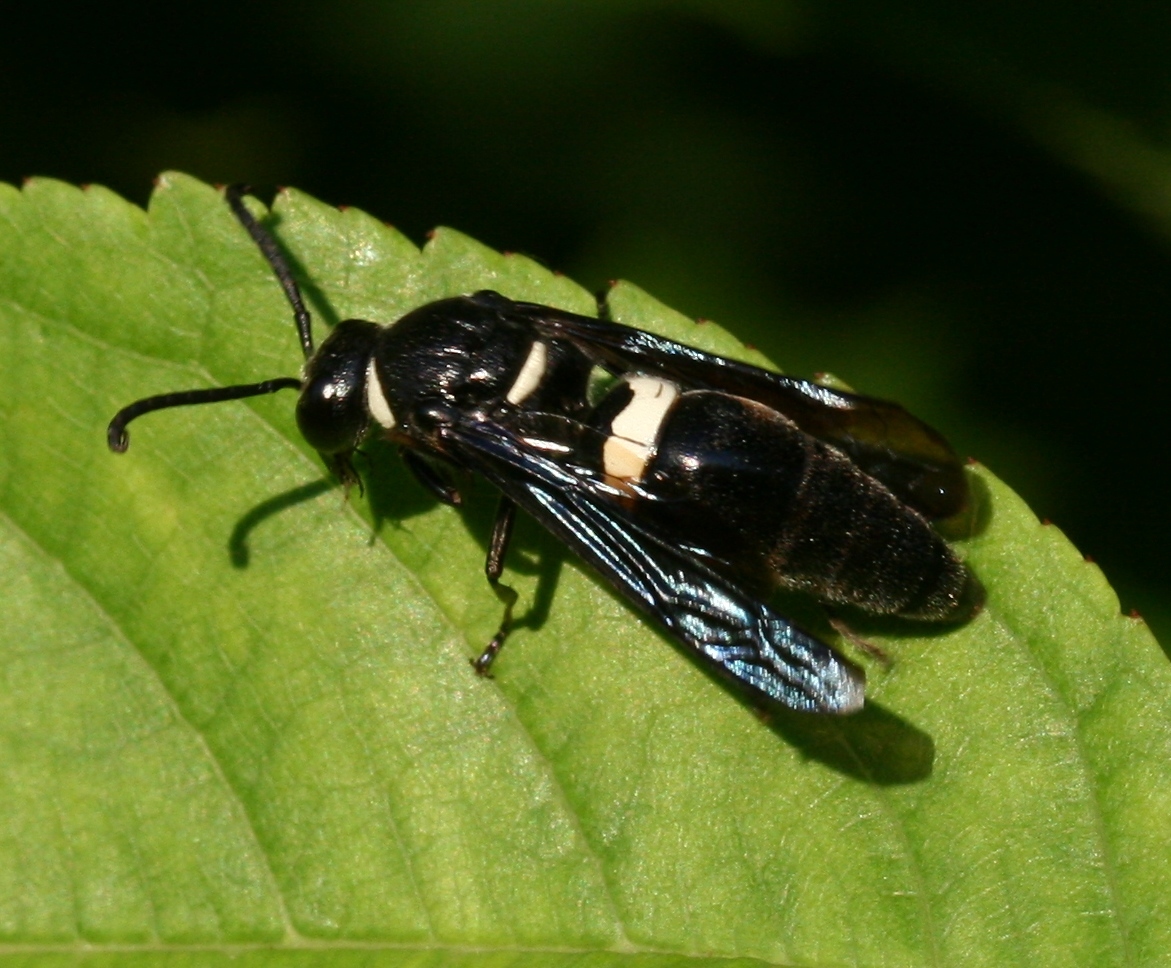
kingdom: Animalia
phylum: Arthropoda
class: Insecta
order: Hymenoptera
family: Eumenidae
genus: Monobia
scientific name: Monobia quadridens
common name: Four-toothed mason wasp
